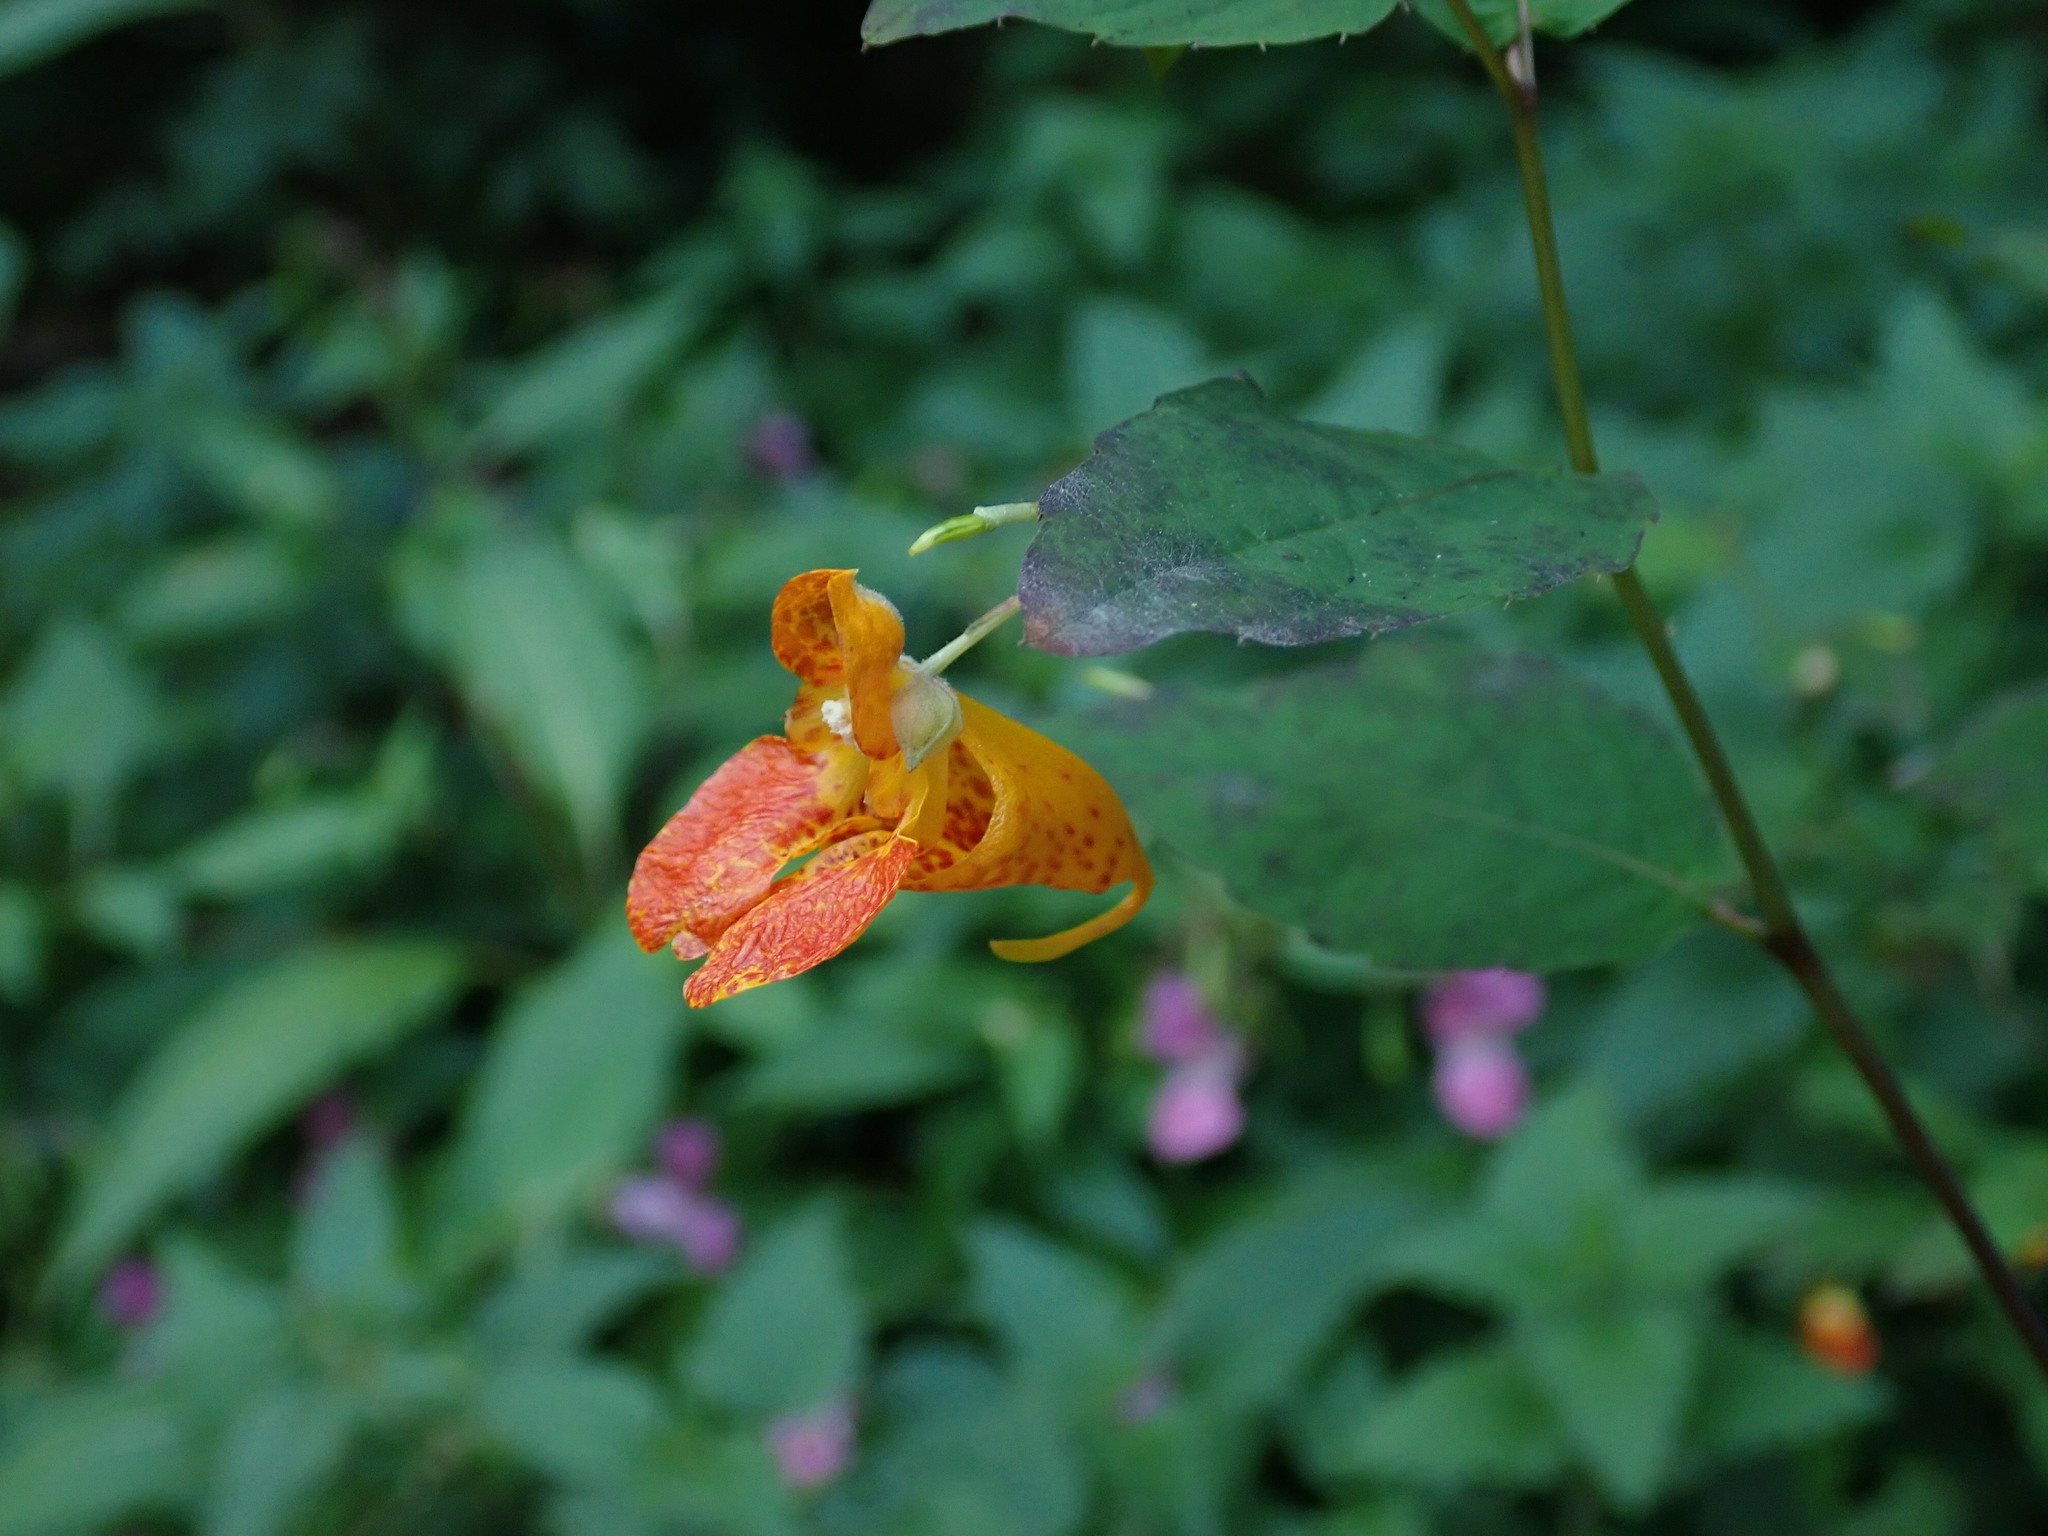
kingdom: Plantae
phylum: Tracheophyta
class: Magnoliopsida
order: Ericales
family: Balsaminaceae
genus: Impatiens
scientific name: Impatiens capensis
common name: Orange balsam
